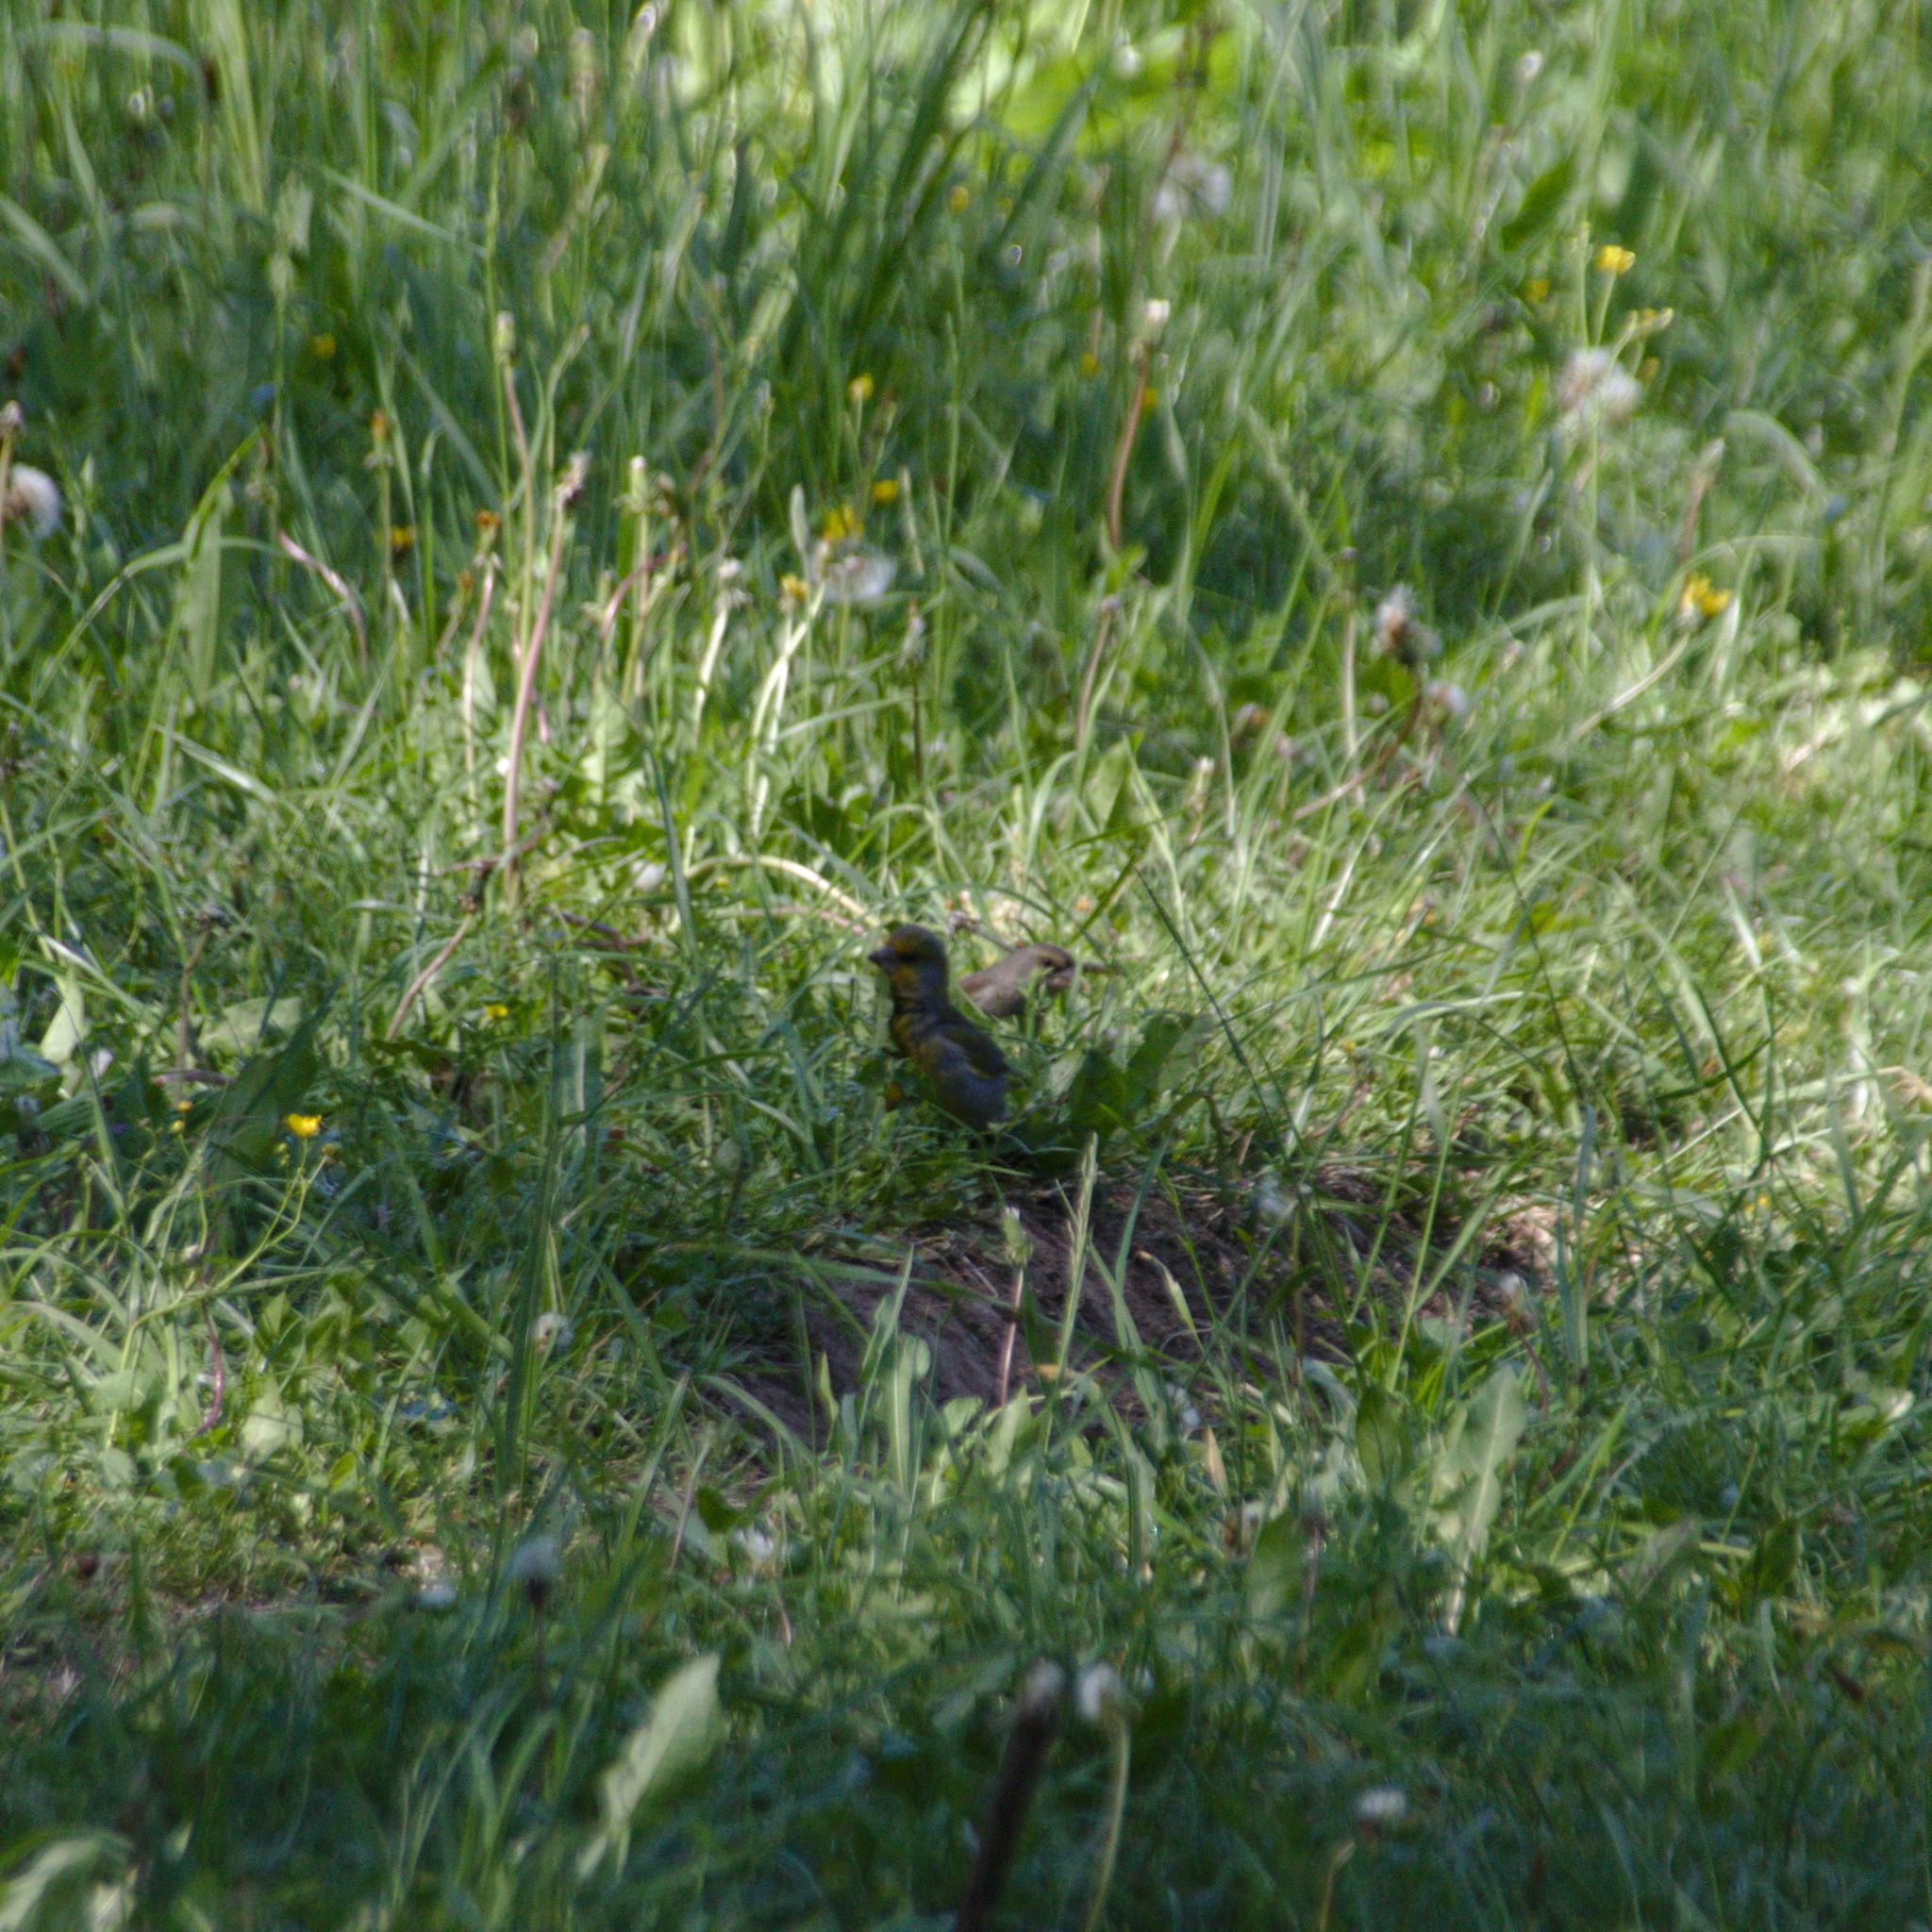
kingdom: Plantae
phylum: Tracheophyta
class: Liliopsida
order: Poales
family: Poaceae
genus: Chloris
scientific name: Chloris chloris
